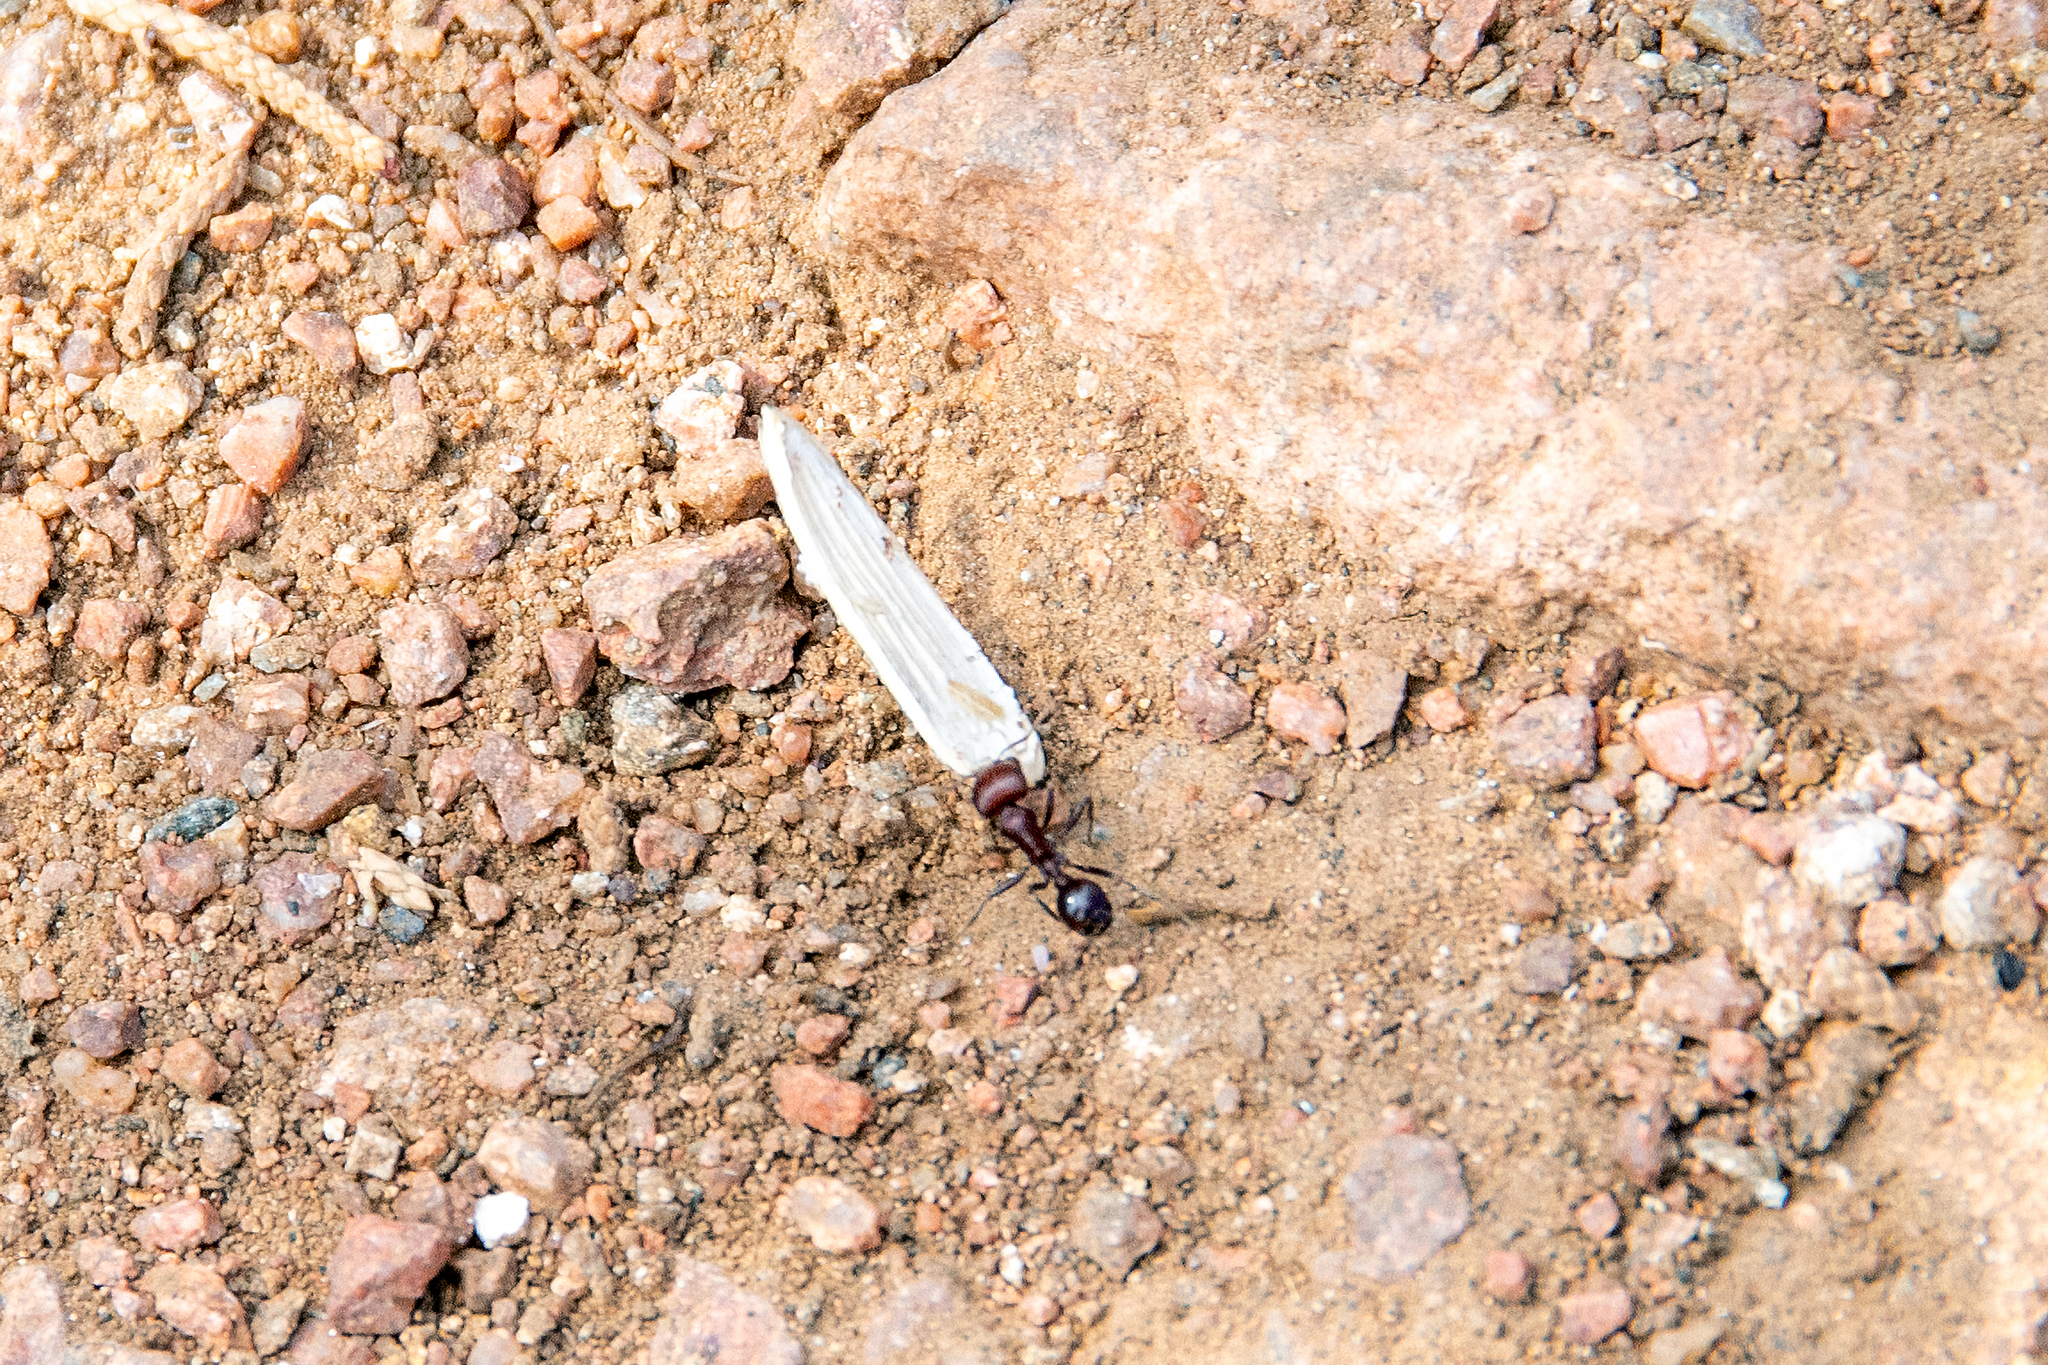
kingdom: Animalia
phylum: Arthropoda
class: Insecta
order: Hymenoptera
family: Formicidae
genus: Pogonomyrmex
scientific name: Pogonomyrmex
